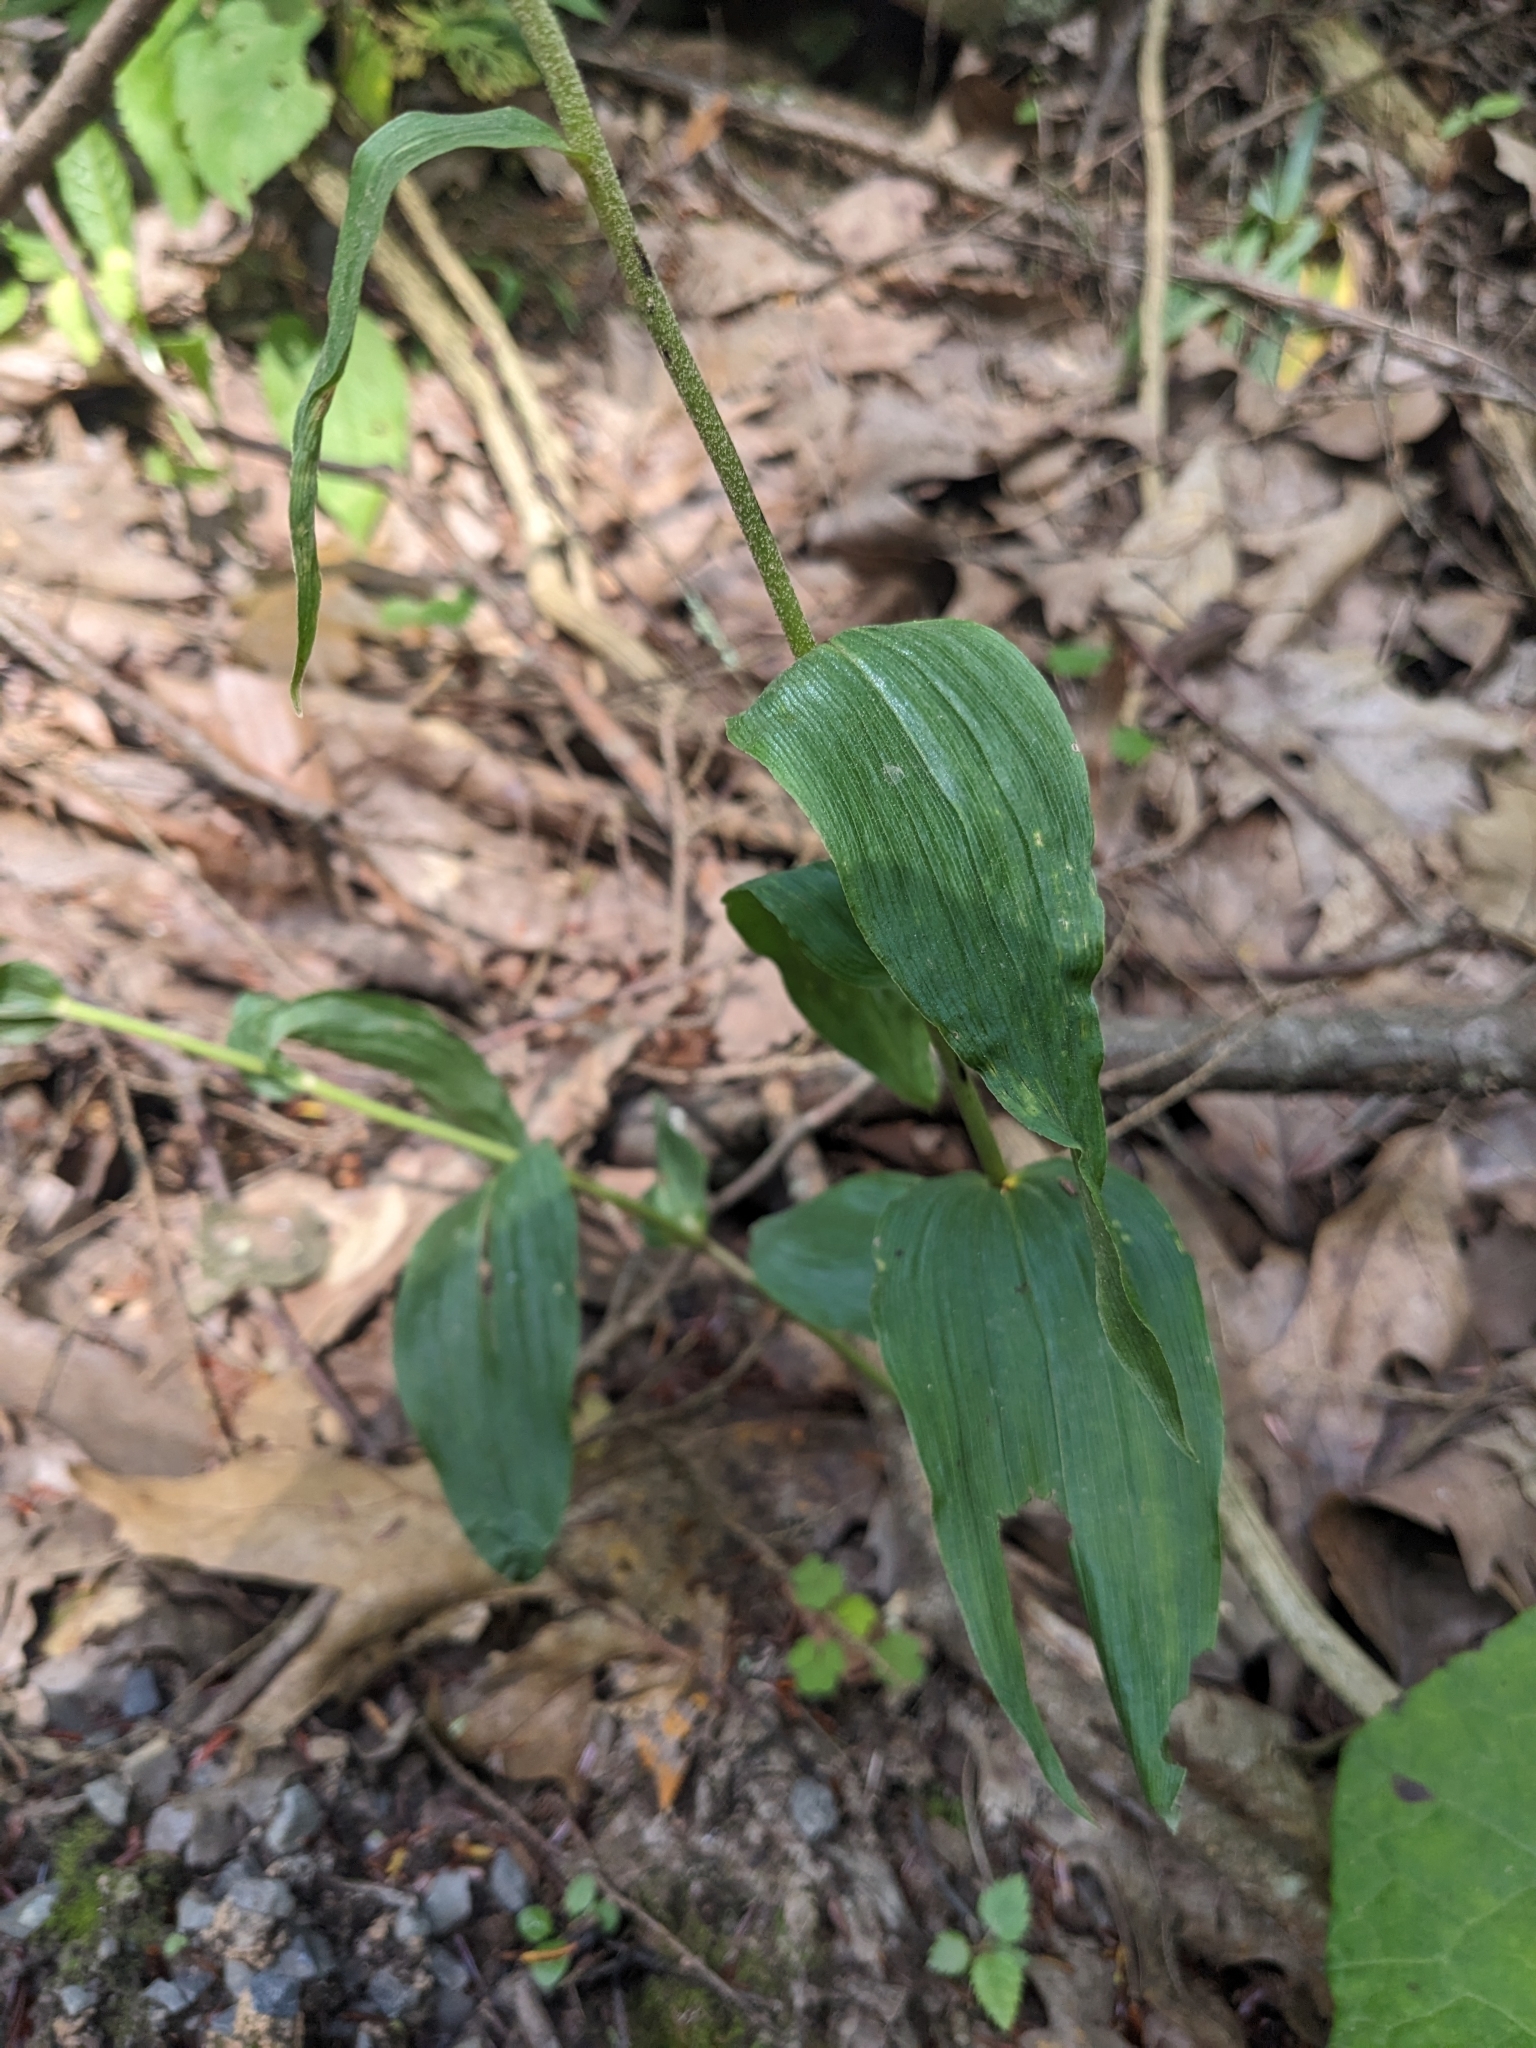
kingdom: Plantae
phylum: Tracheophyta
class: Liliopsida
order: Asparagales
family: Orchidaceae
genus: Epipactis
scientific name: Epipactis helleborine
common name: Broad-leaved helleborine
